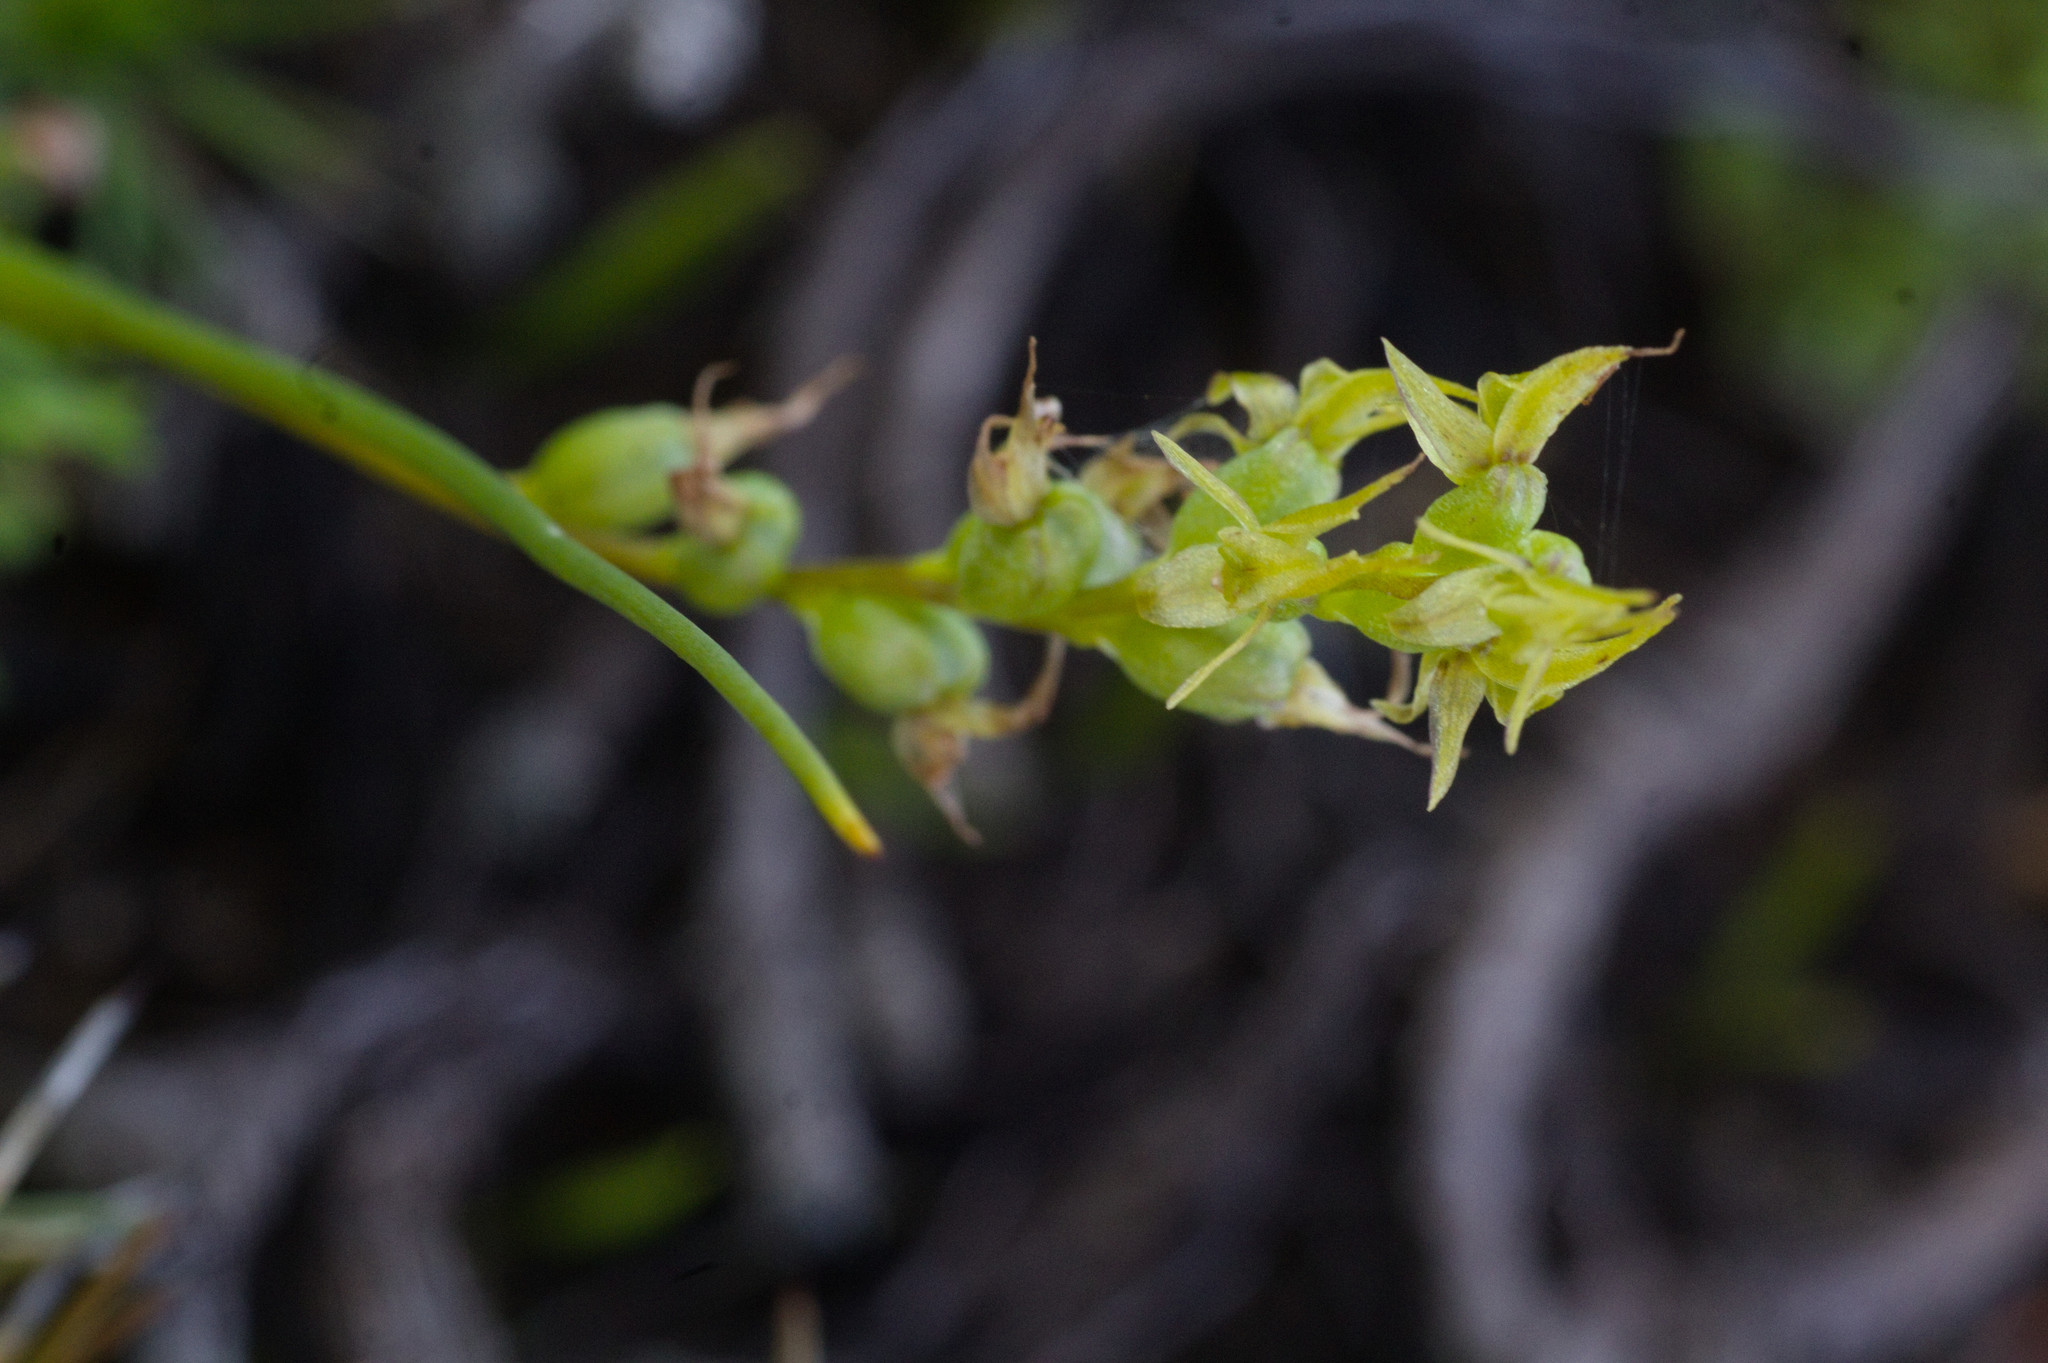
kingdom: Plantae
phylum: Tracheophyta
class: Liliopsida
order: Asparagales
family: Orchidaceae
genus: Prasophyllum
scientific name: Prasophyllum gracile
